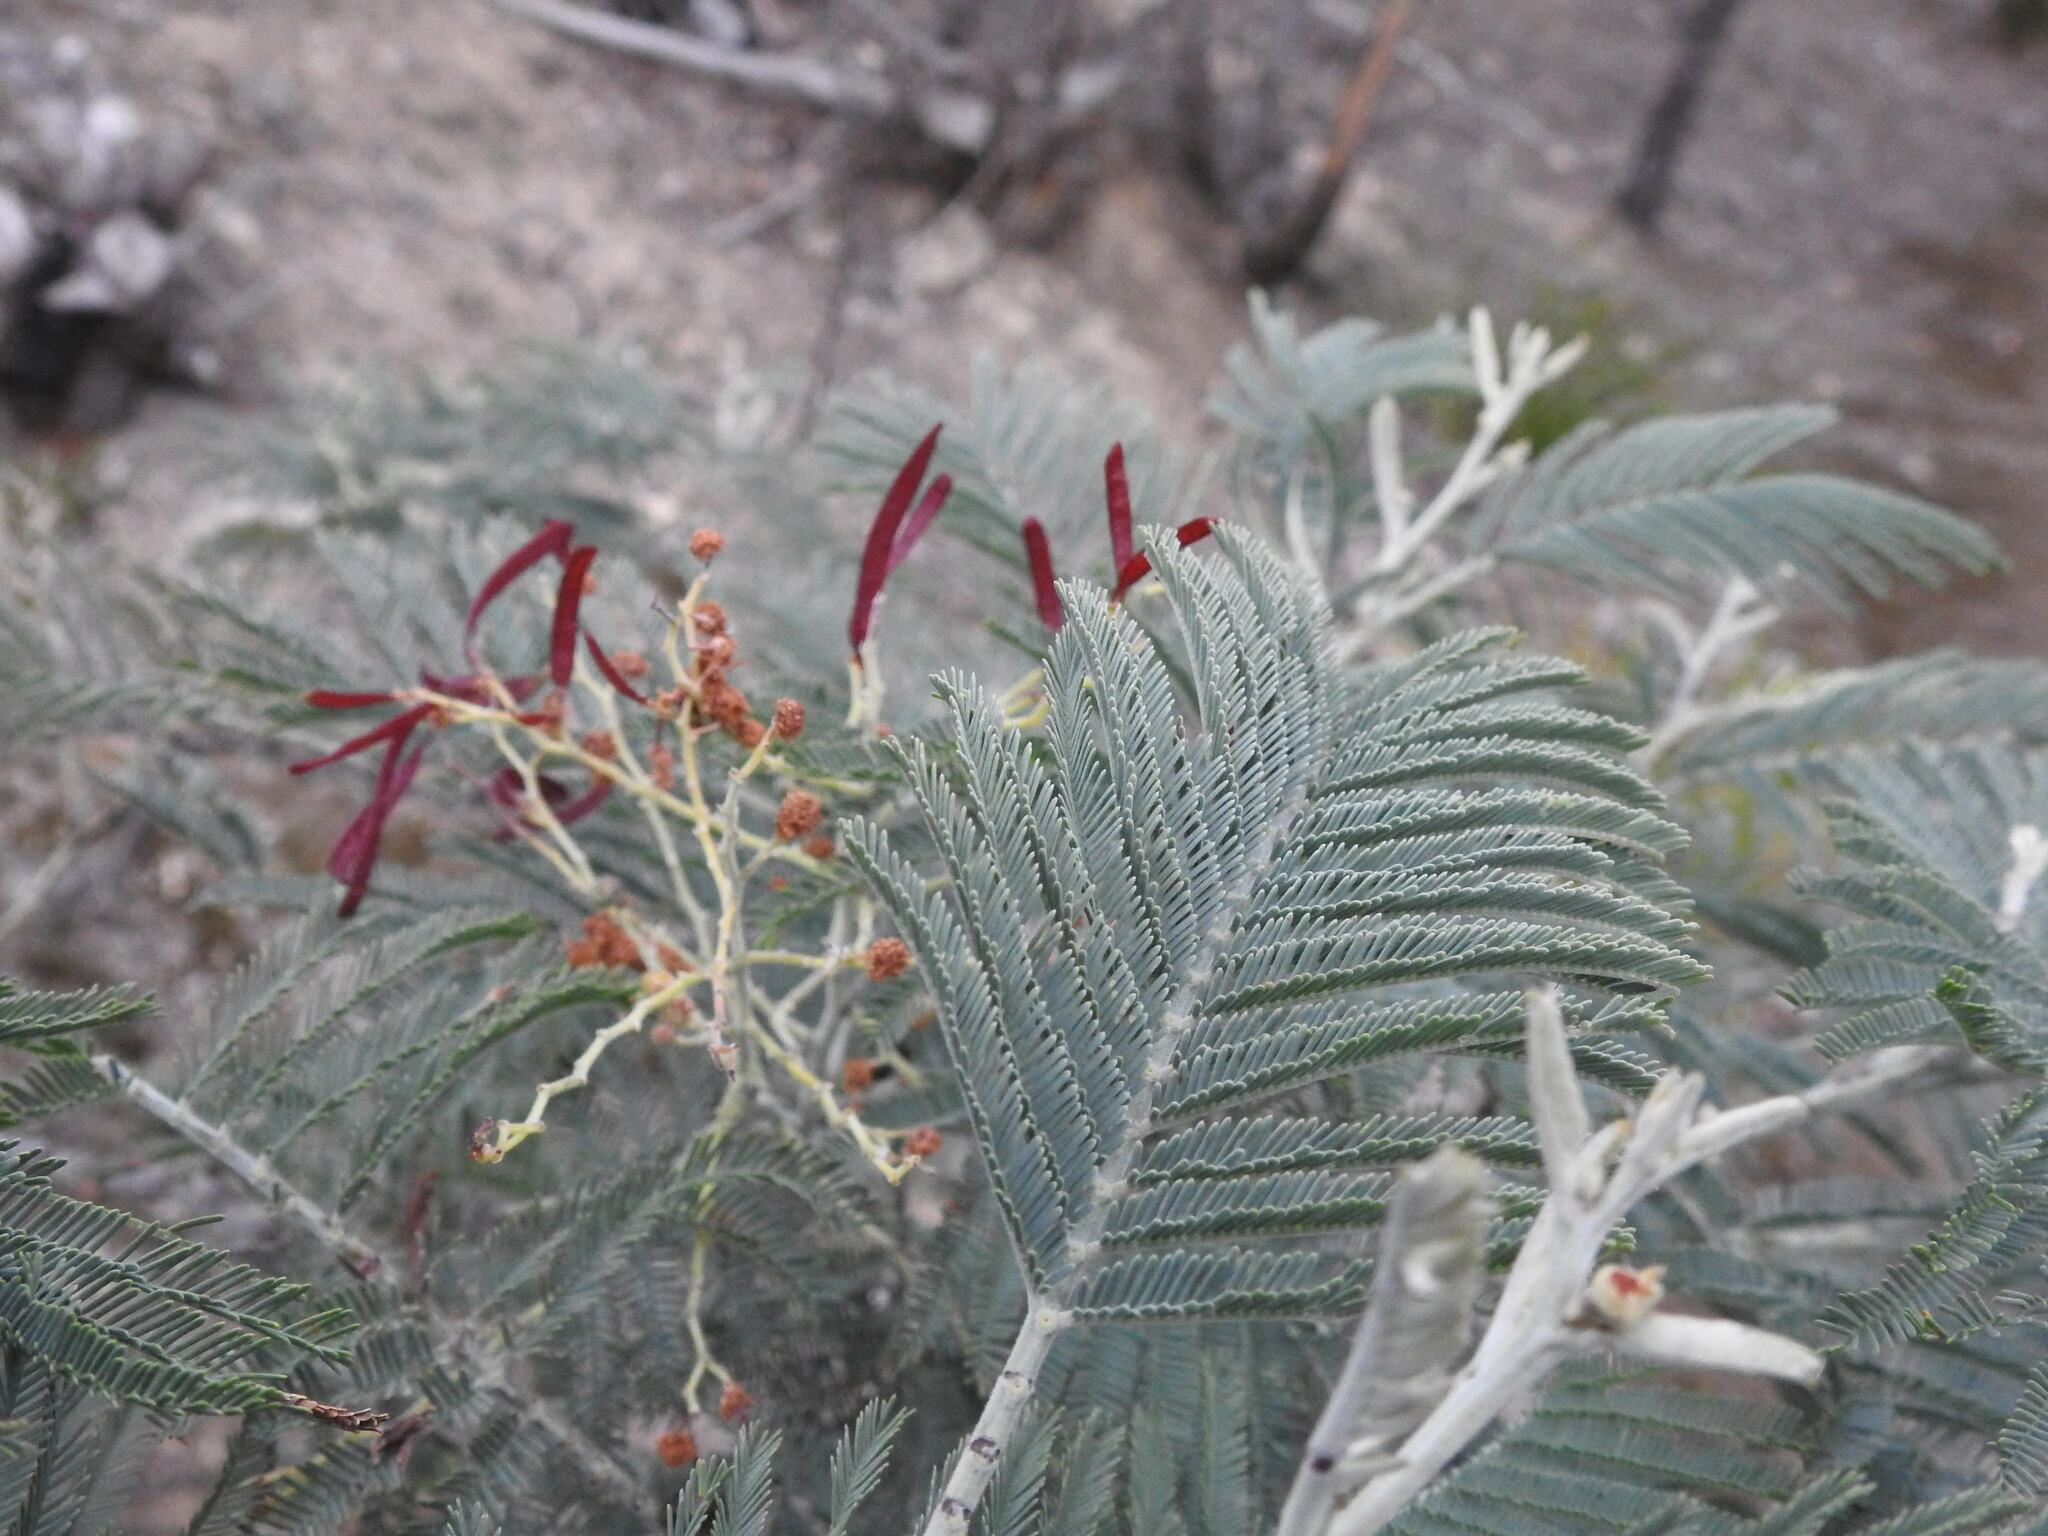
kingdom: Plantae
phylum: Tracheophyta
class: Magnoliopsida
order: Fabales
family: Fabaceae
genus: Acacia
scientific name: Acacia dealbata
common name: Silver wattle
